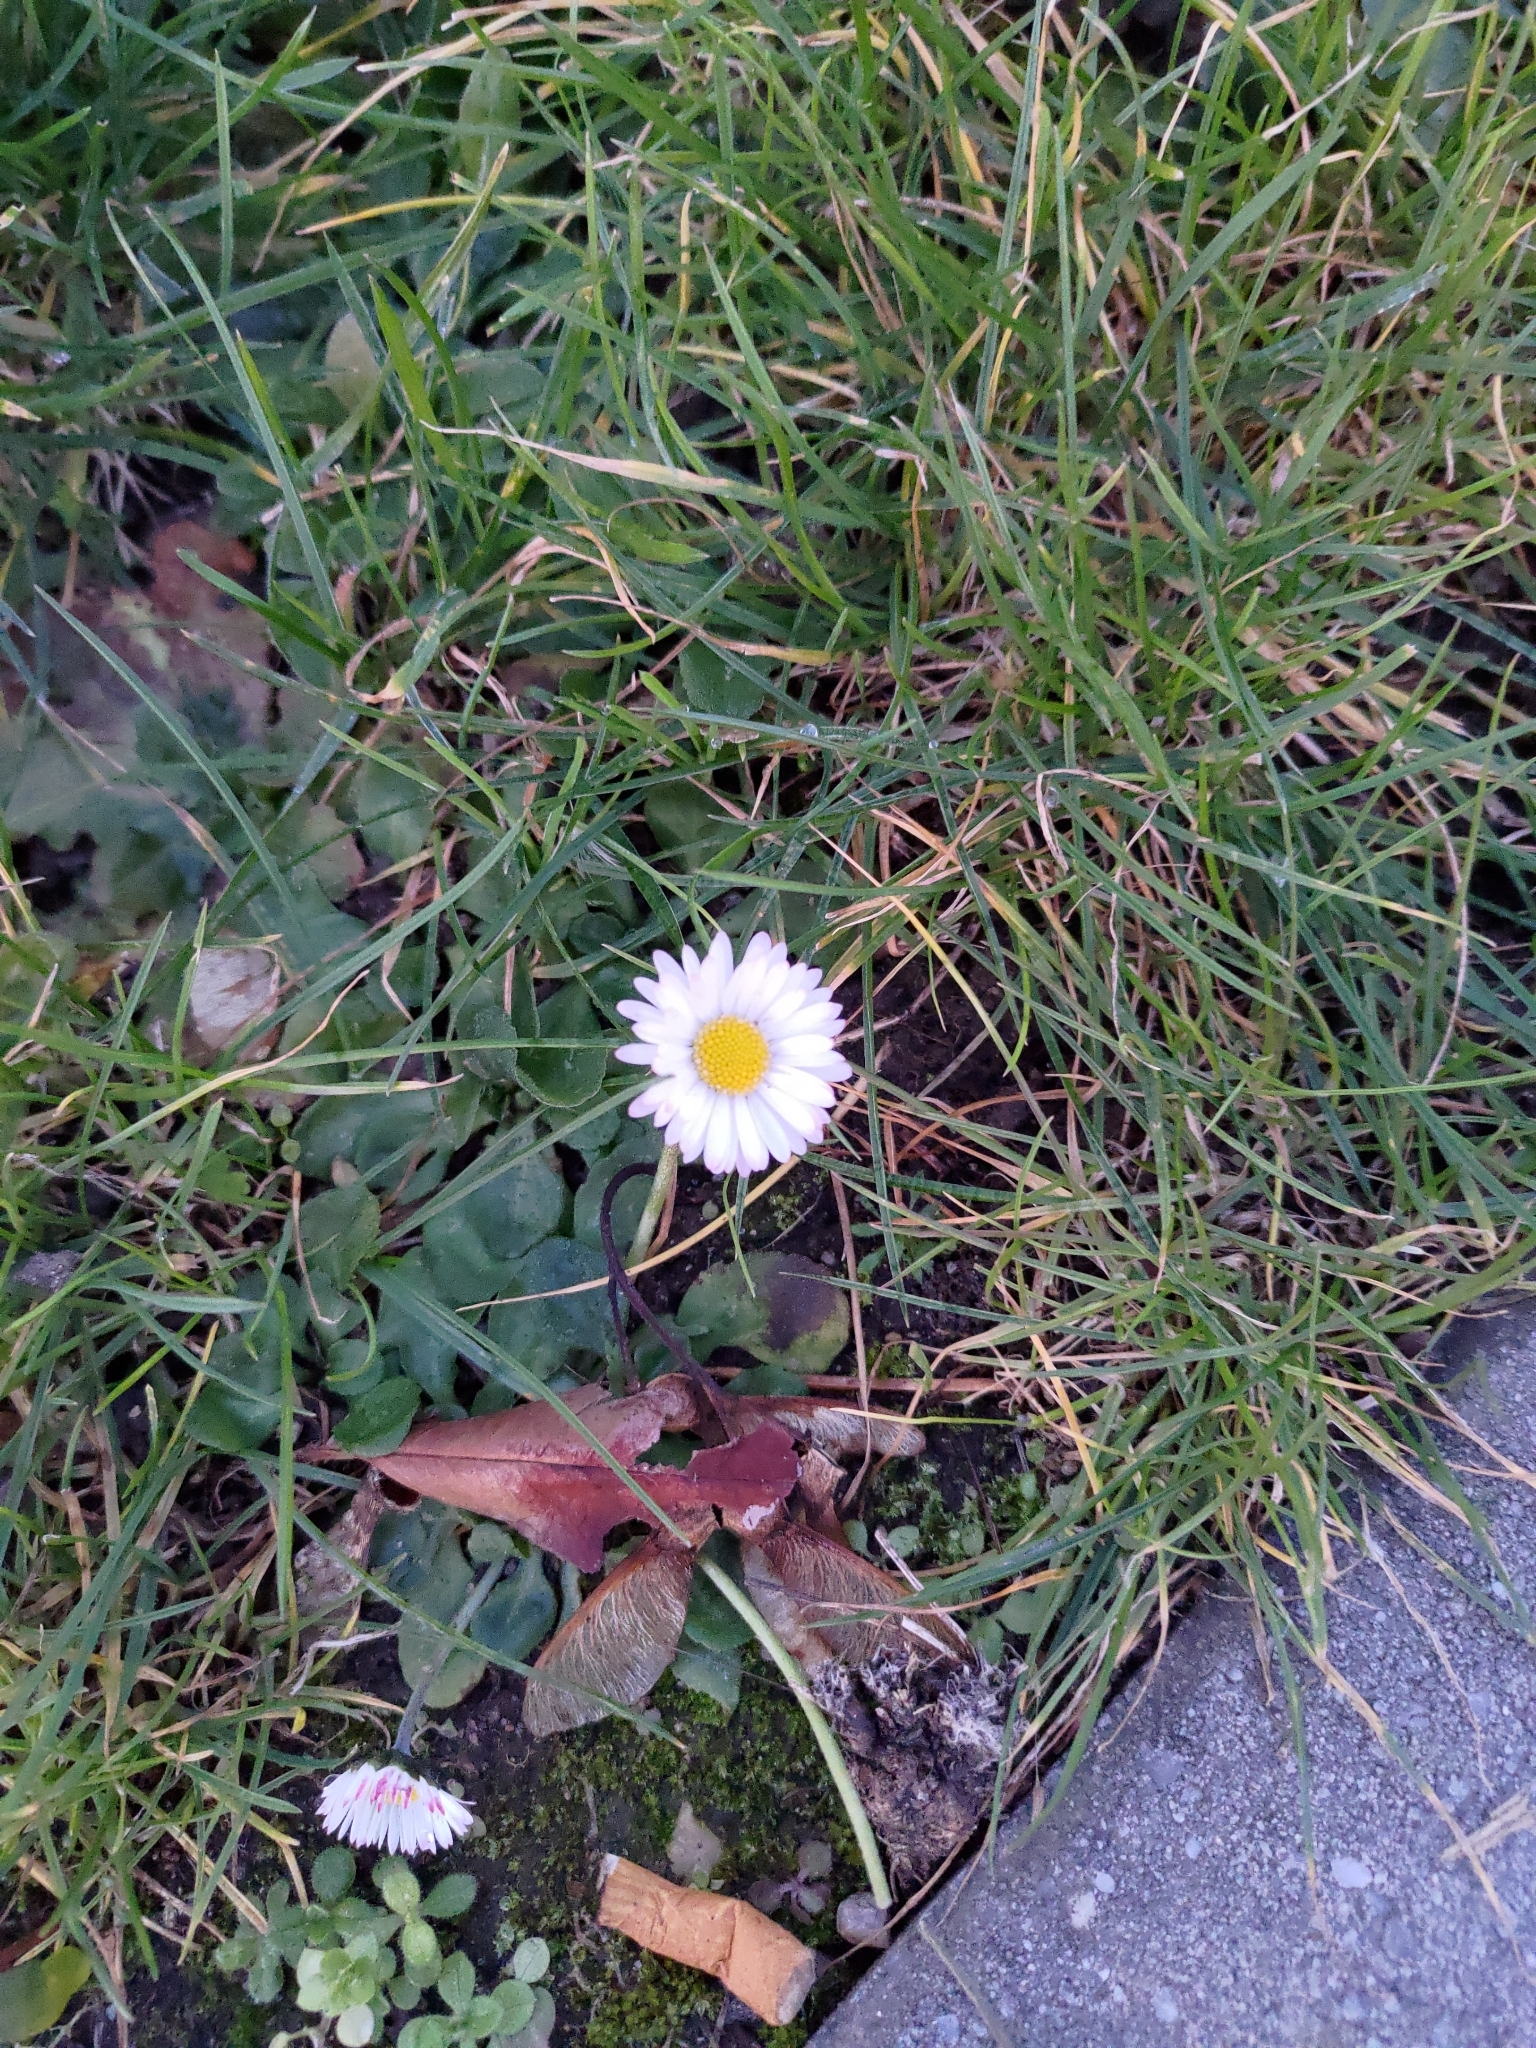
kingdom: Plantae
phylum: Tracheophyta
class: Magnoliopsida
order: Asterales
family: Asteraceae
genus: Bellis
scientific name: Bellis perennis
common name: Lawndaisy
